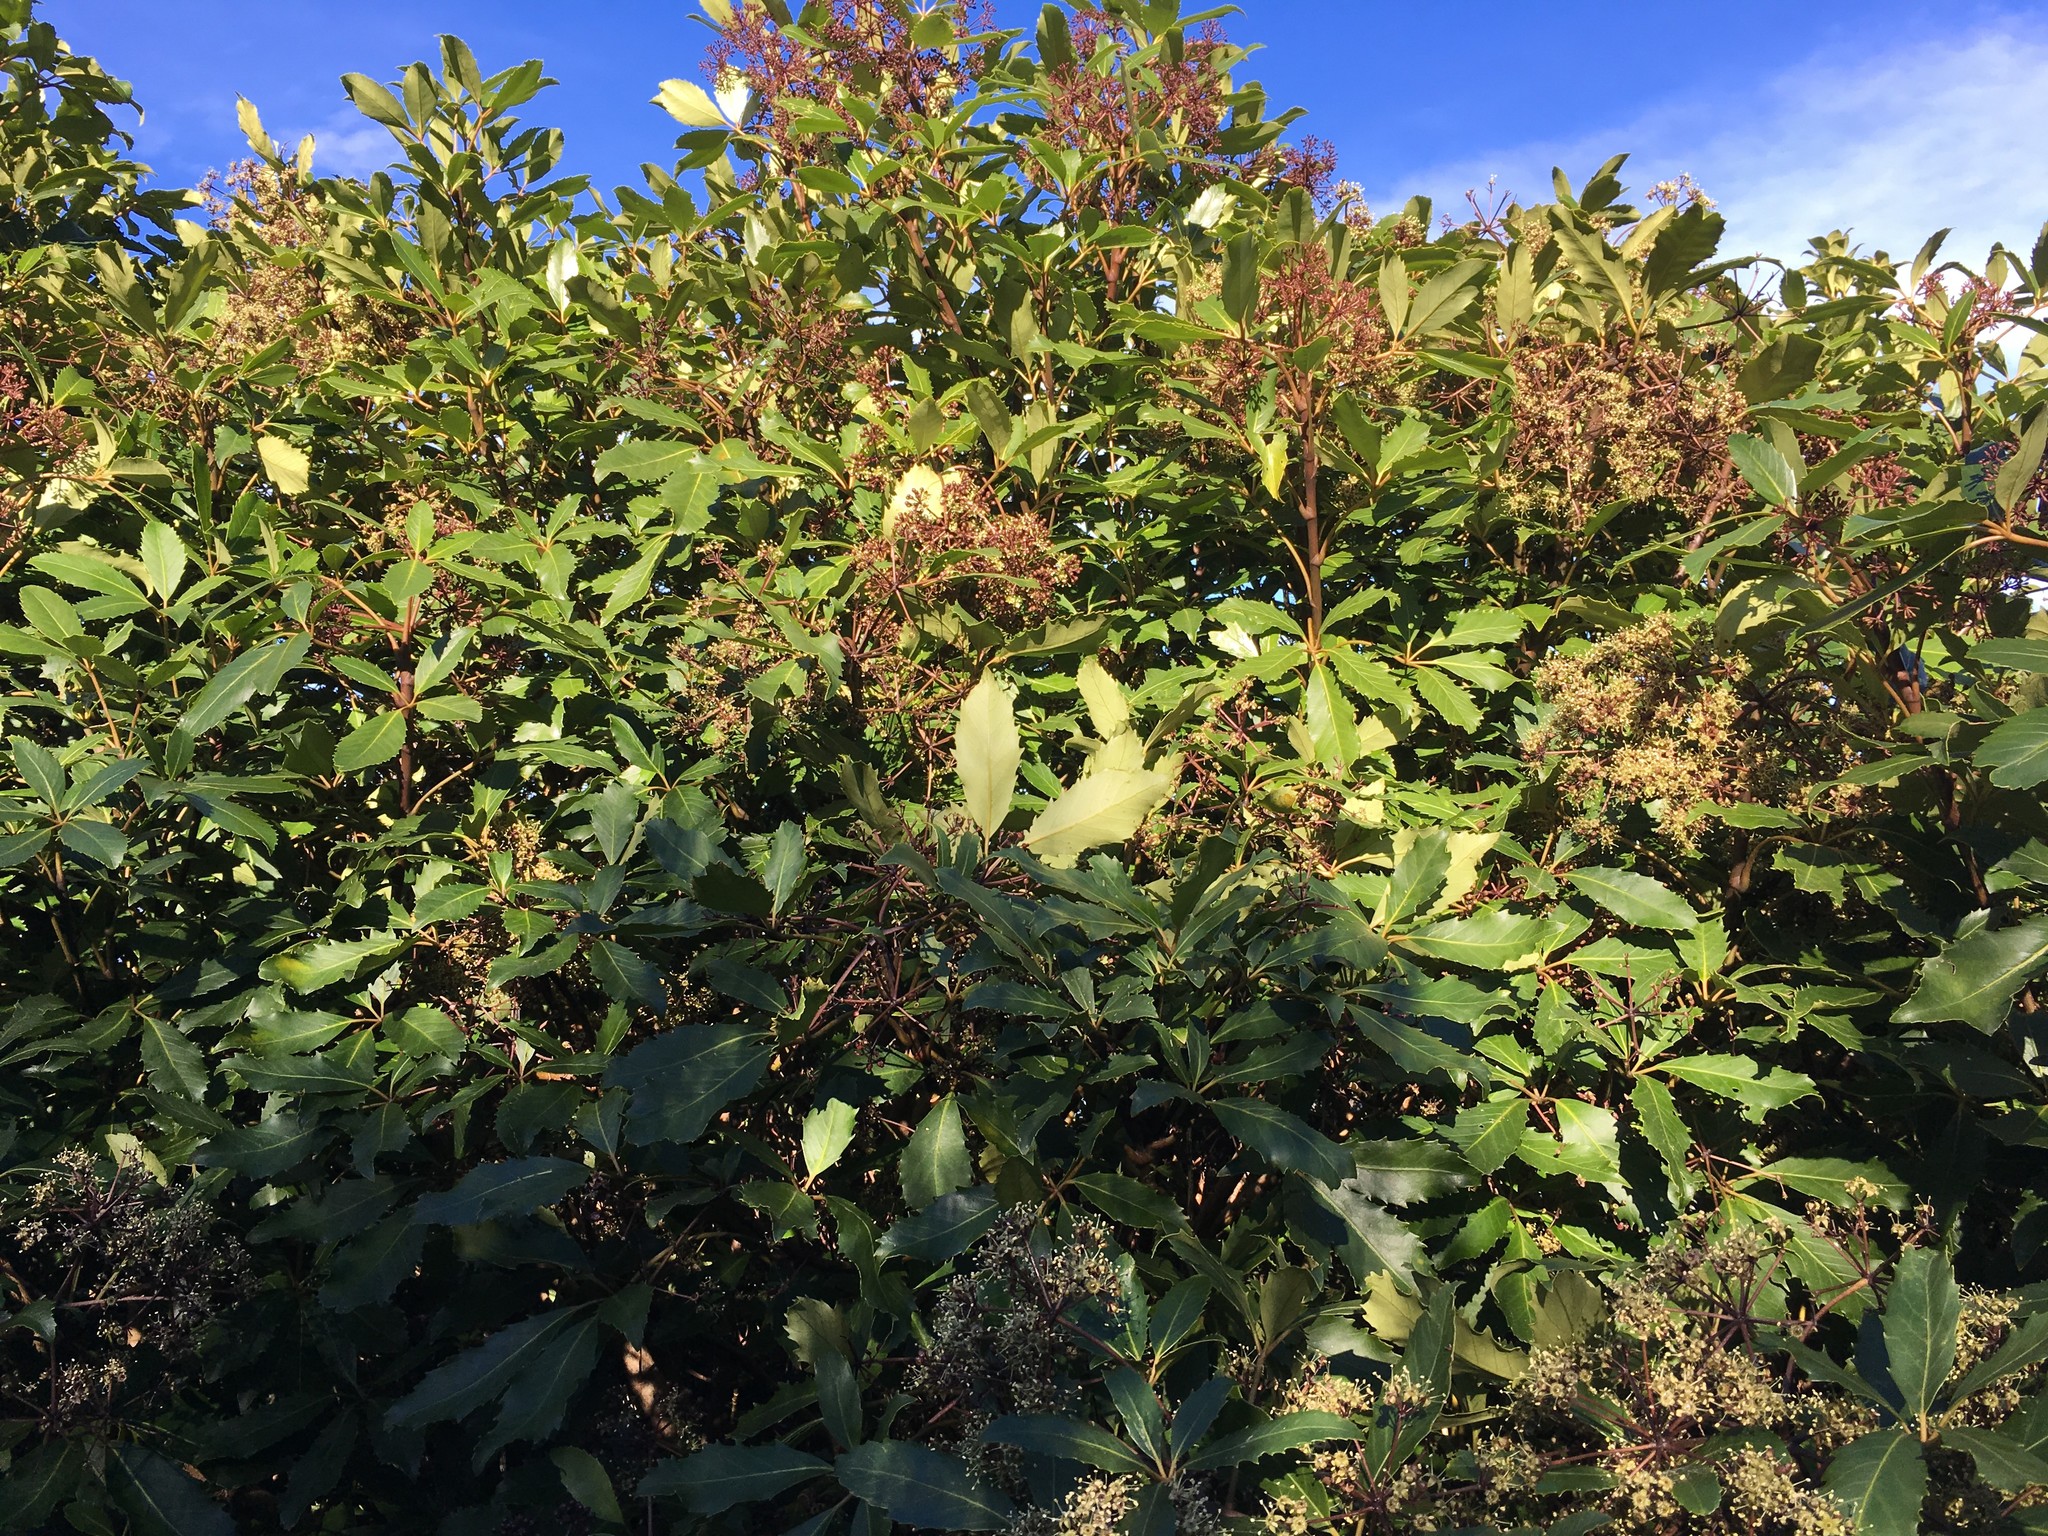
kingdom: Plantae
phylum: Tracheophyta
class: Magnoliopsida
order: Apiales
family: Araliaceae
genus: Neopanax
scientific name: Neopanax arboreus
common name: Five-fingers
